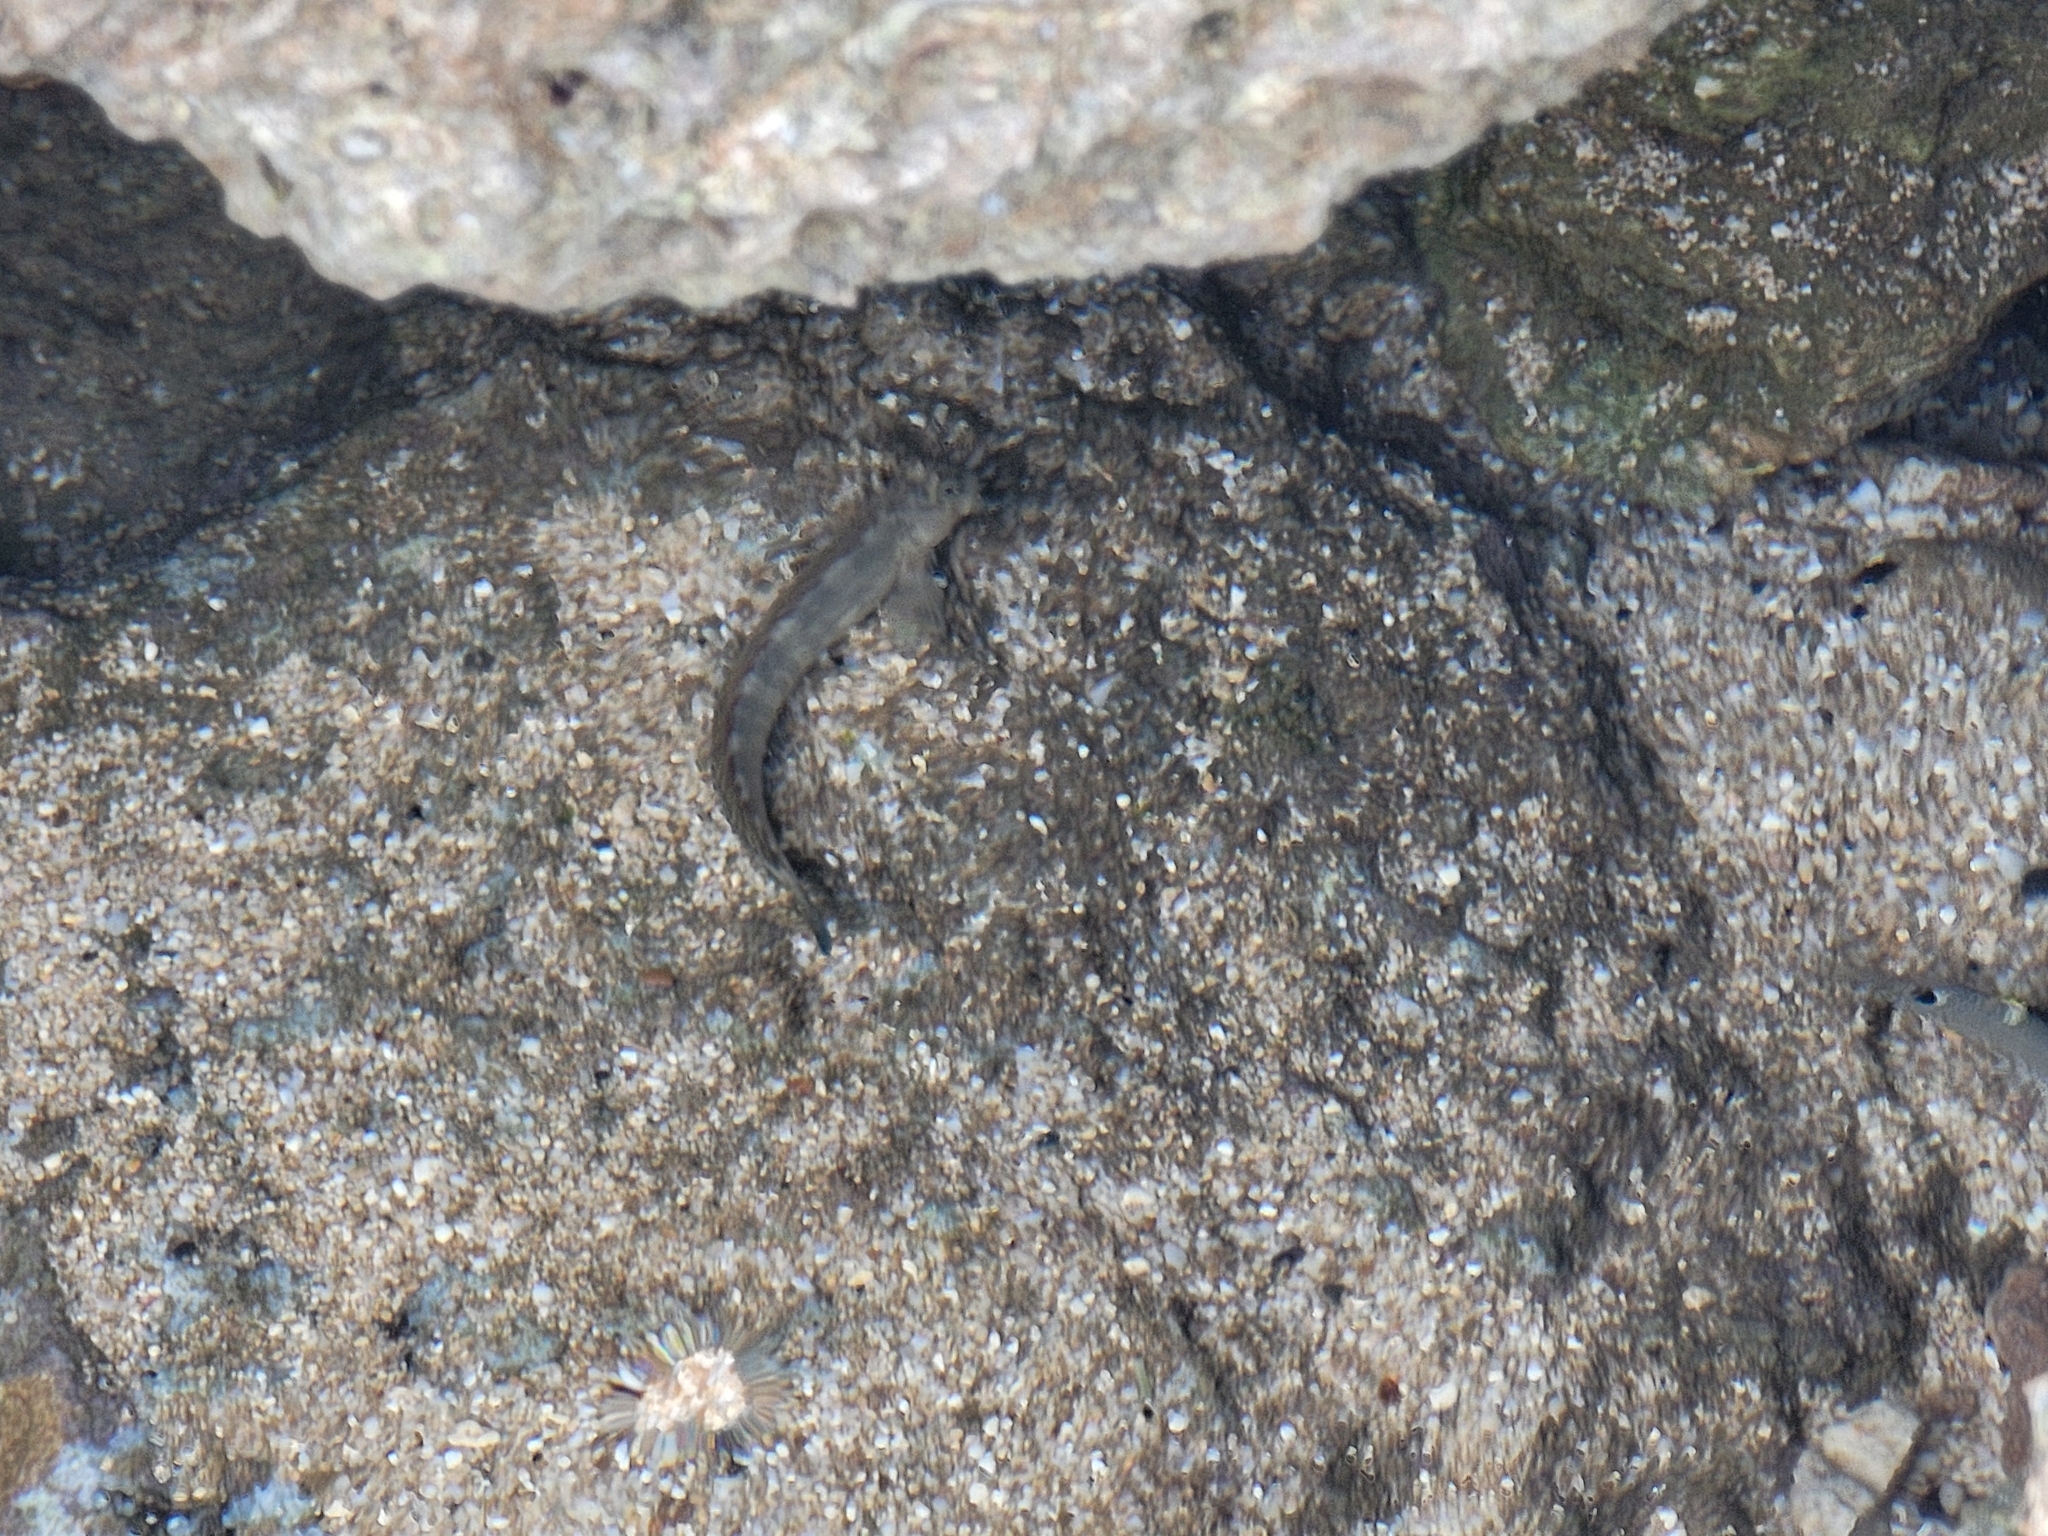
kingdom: Animalia
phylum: Chordata
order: Perciformes
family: Blenniidae
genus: Istiblennius
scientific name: Istiblennius zebra
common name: Zebra blenny
